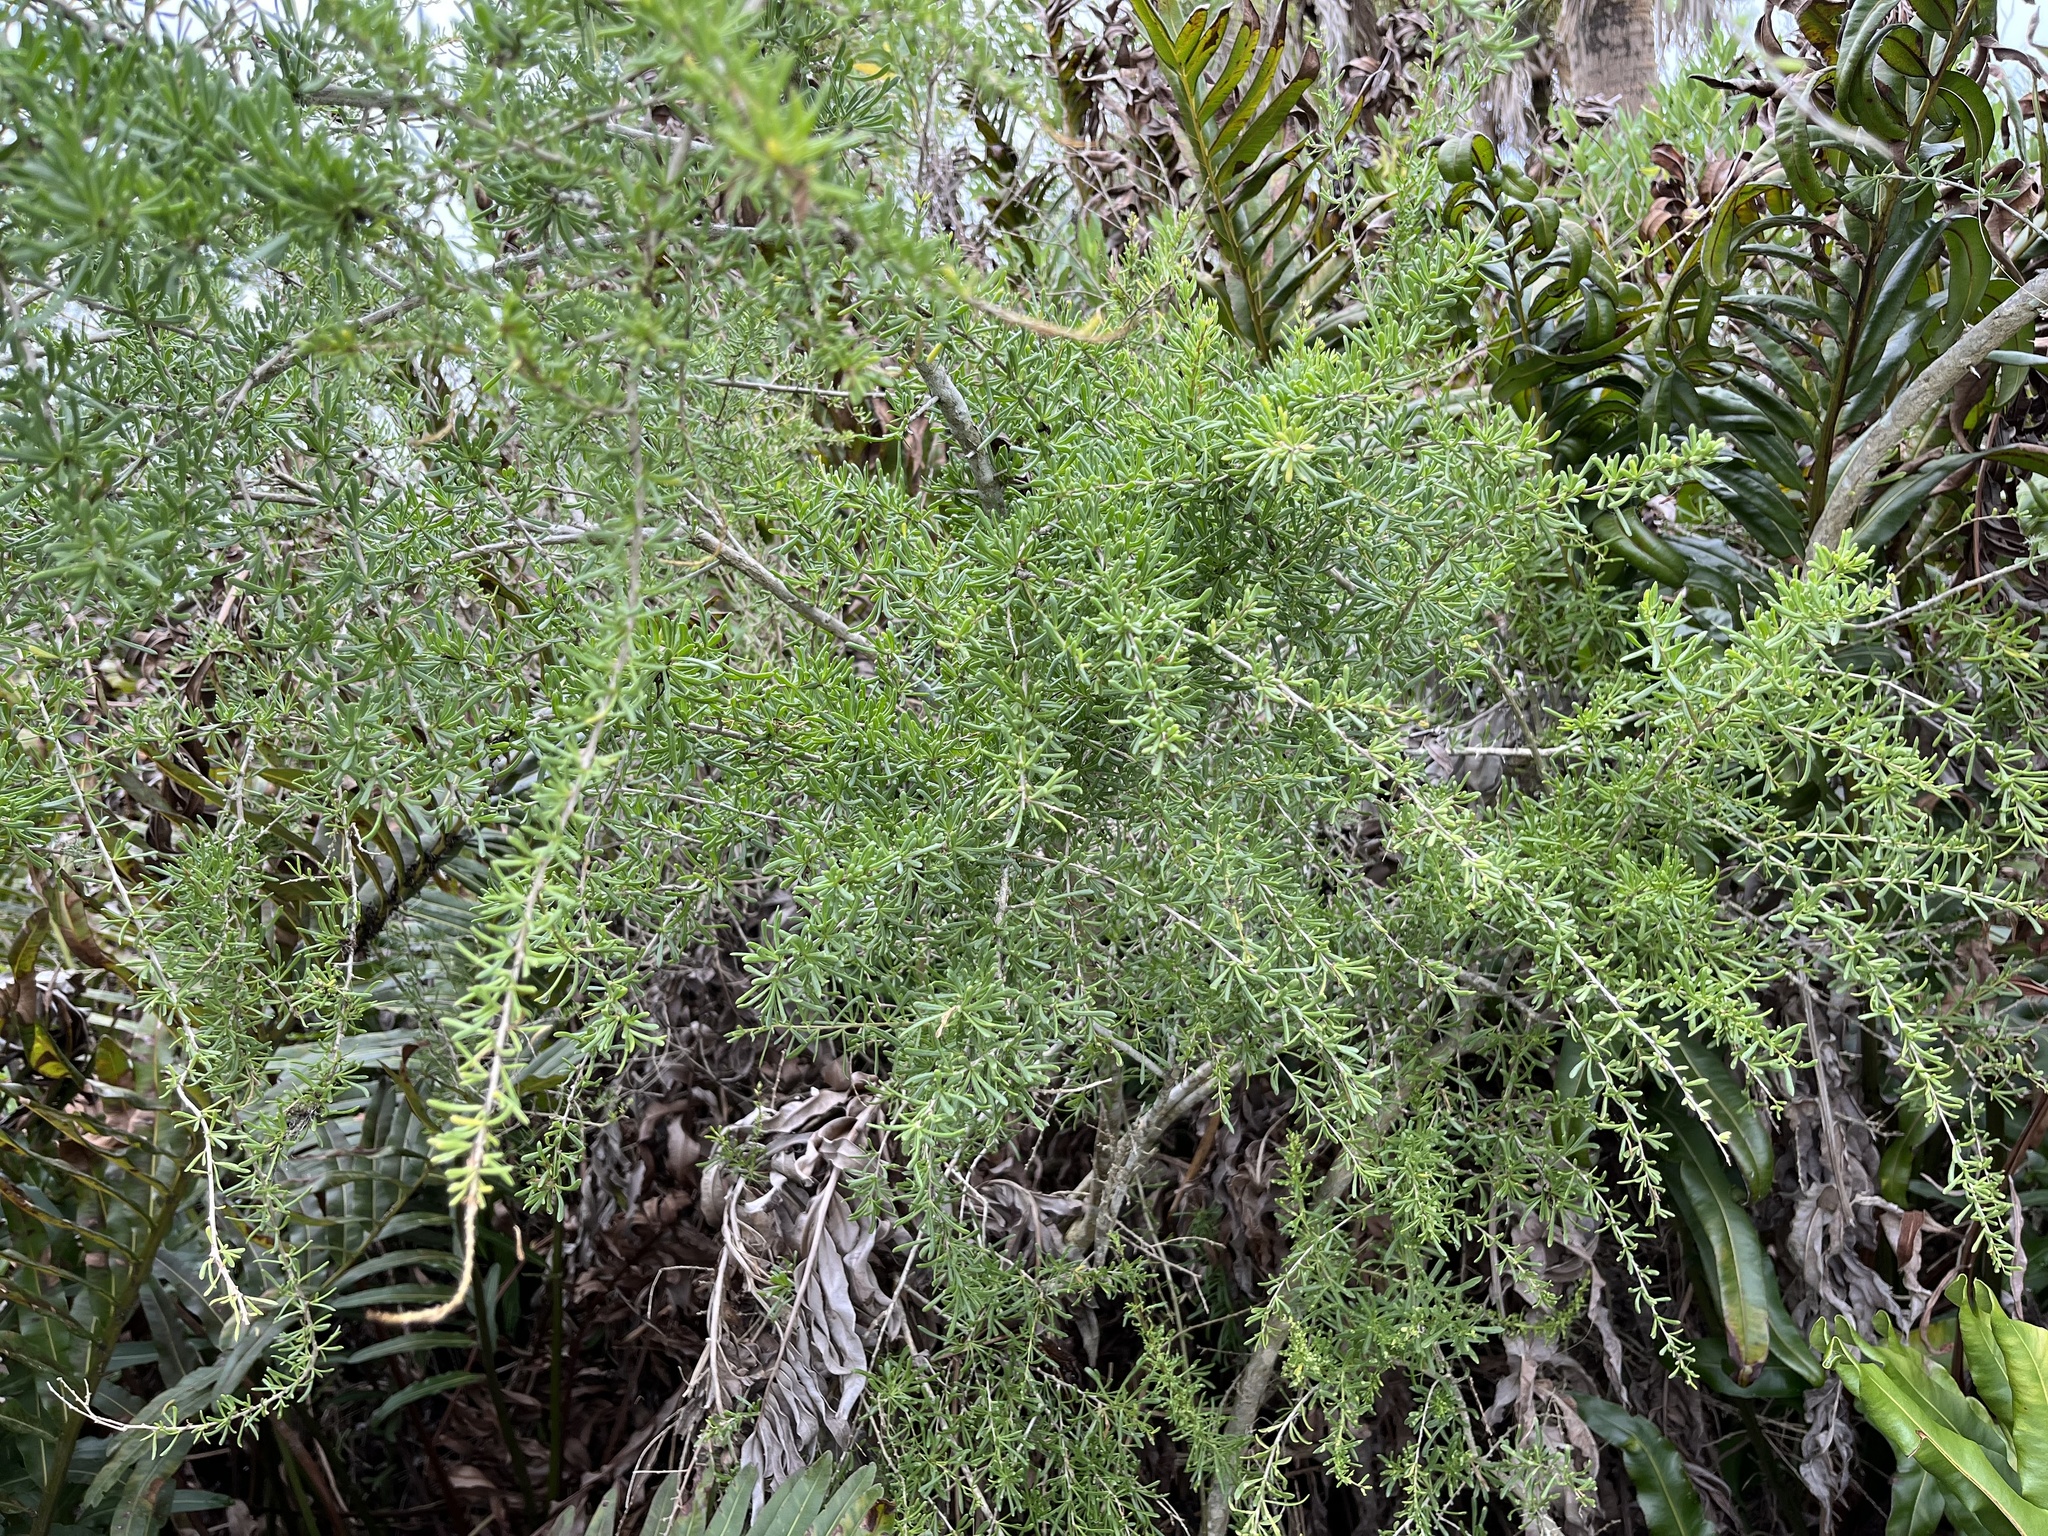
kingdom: Plantae
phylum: Tracheophyta
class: Magnoliopsida
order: Solanales
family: Solanaceae
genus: Lycium
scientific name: Lycium carolinianum
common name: Christmasberry
